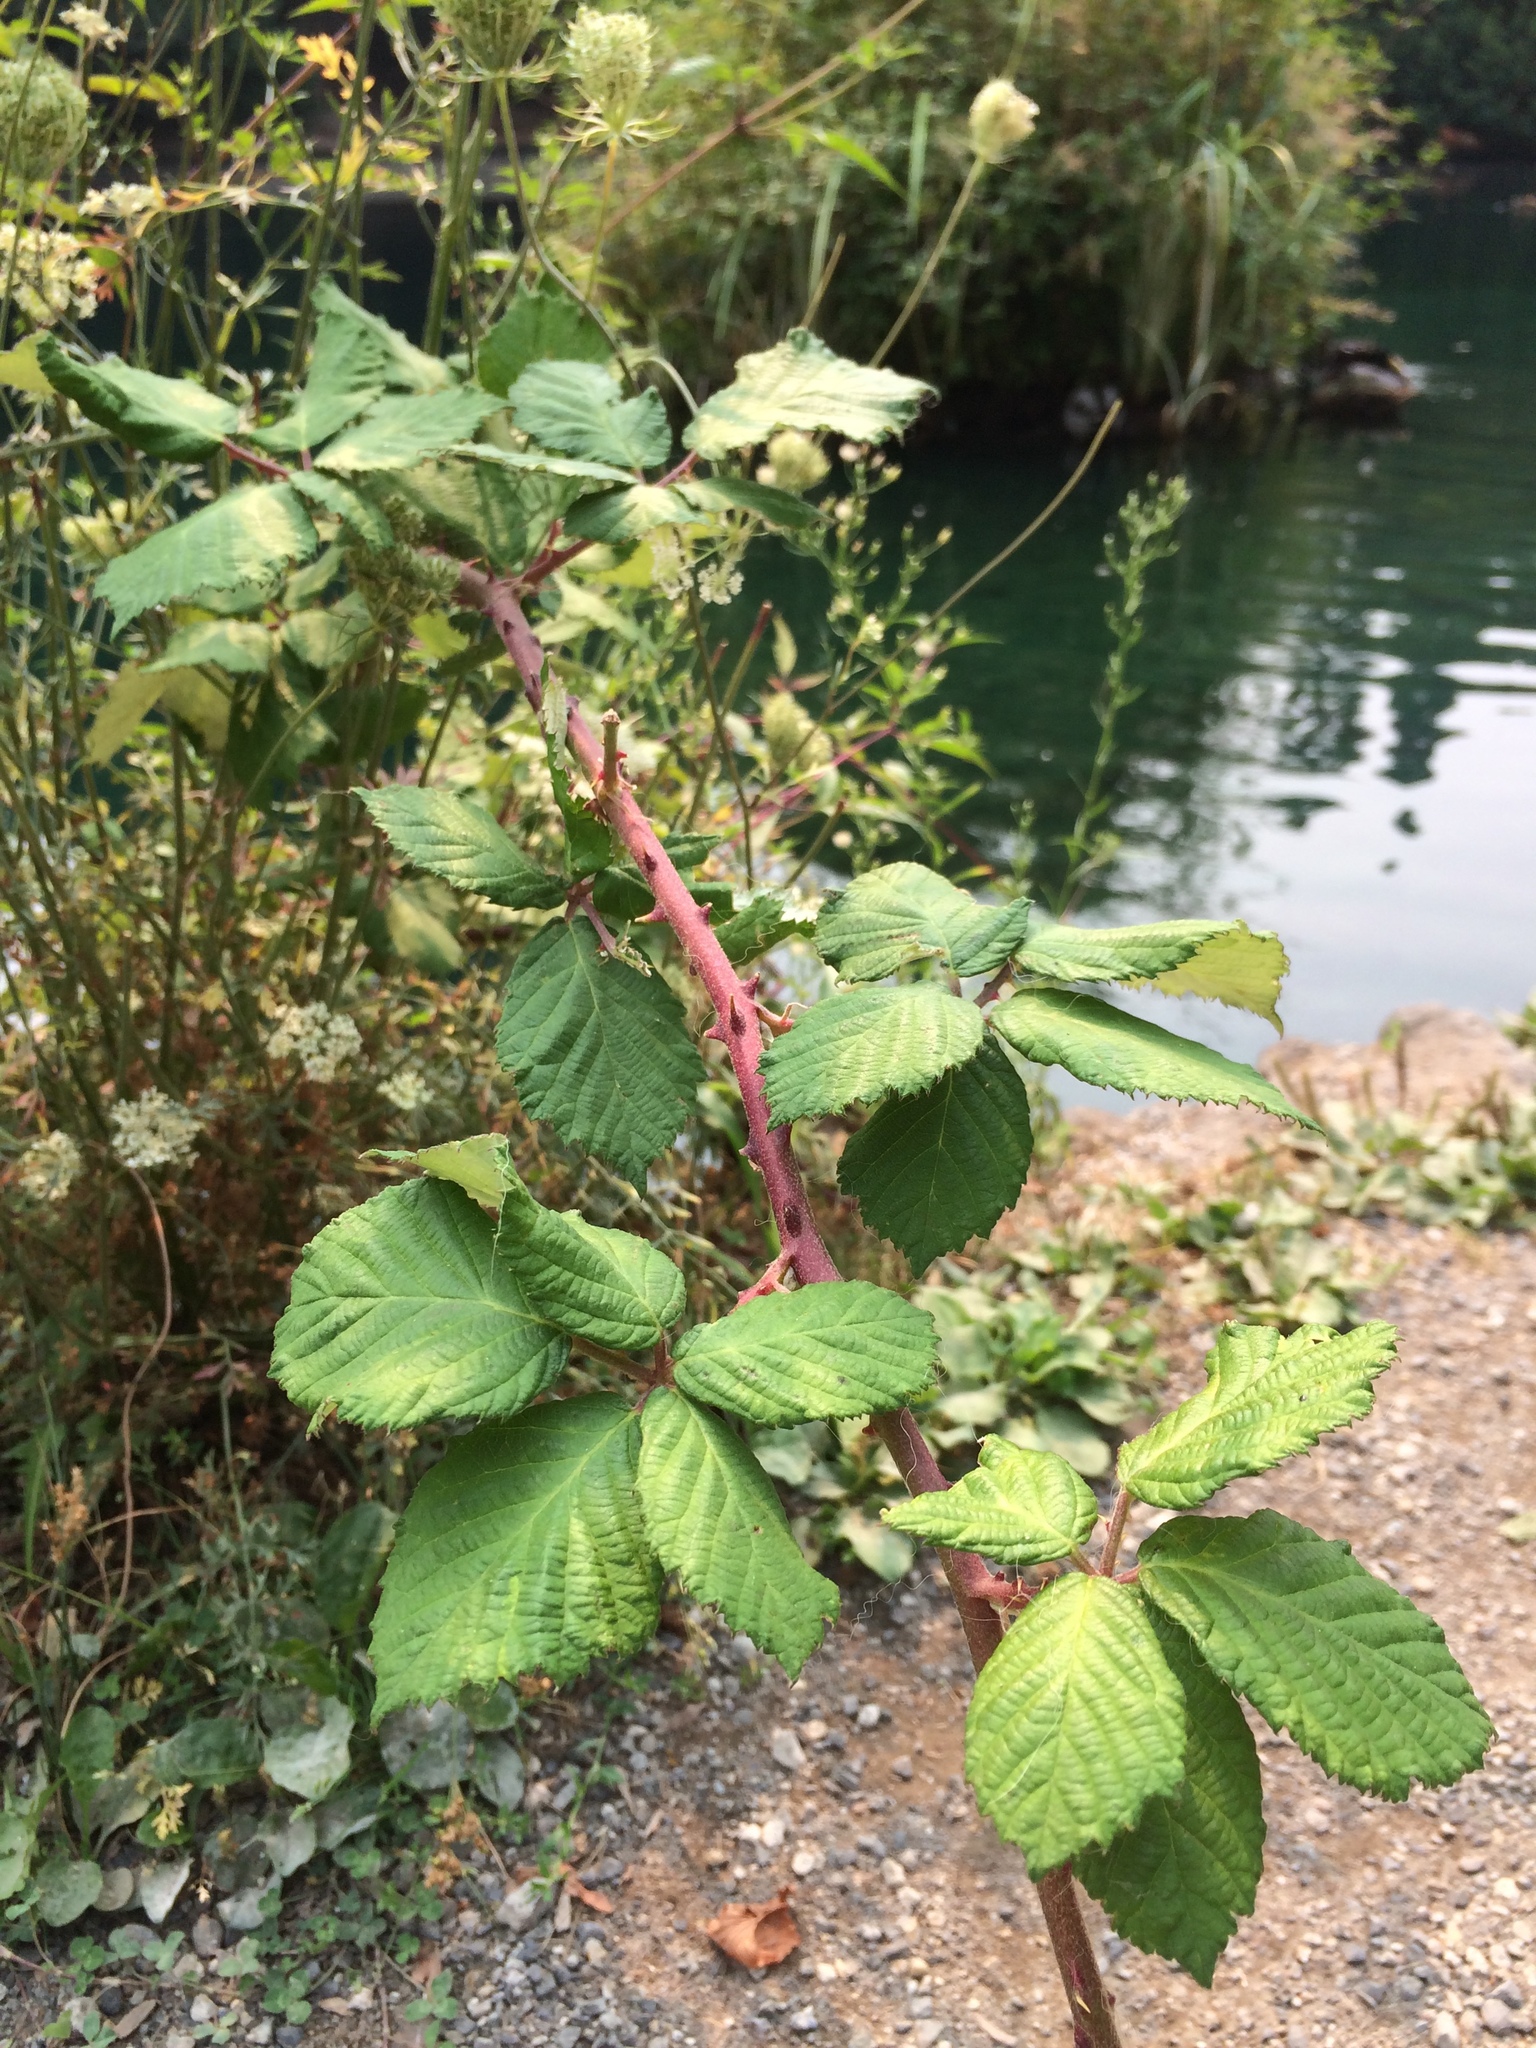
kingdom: Plantae
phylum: Tracheophyta
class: Magnoliopsida
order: Rosales
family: Rosaceae
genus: Rubus
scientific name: Rubus armeniacus
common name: Himalayan blackberry
